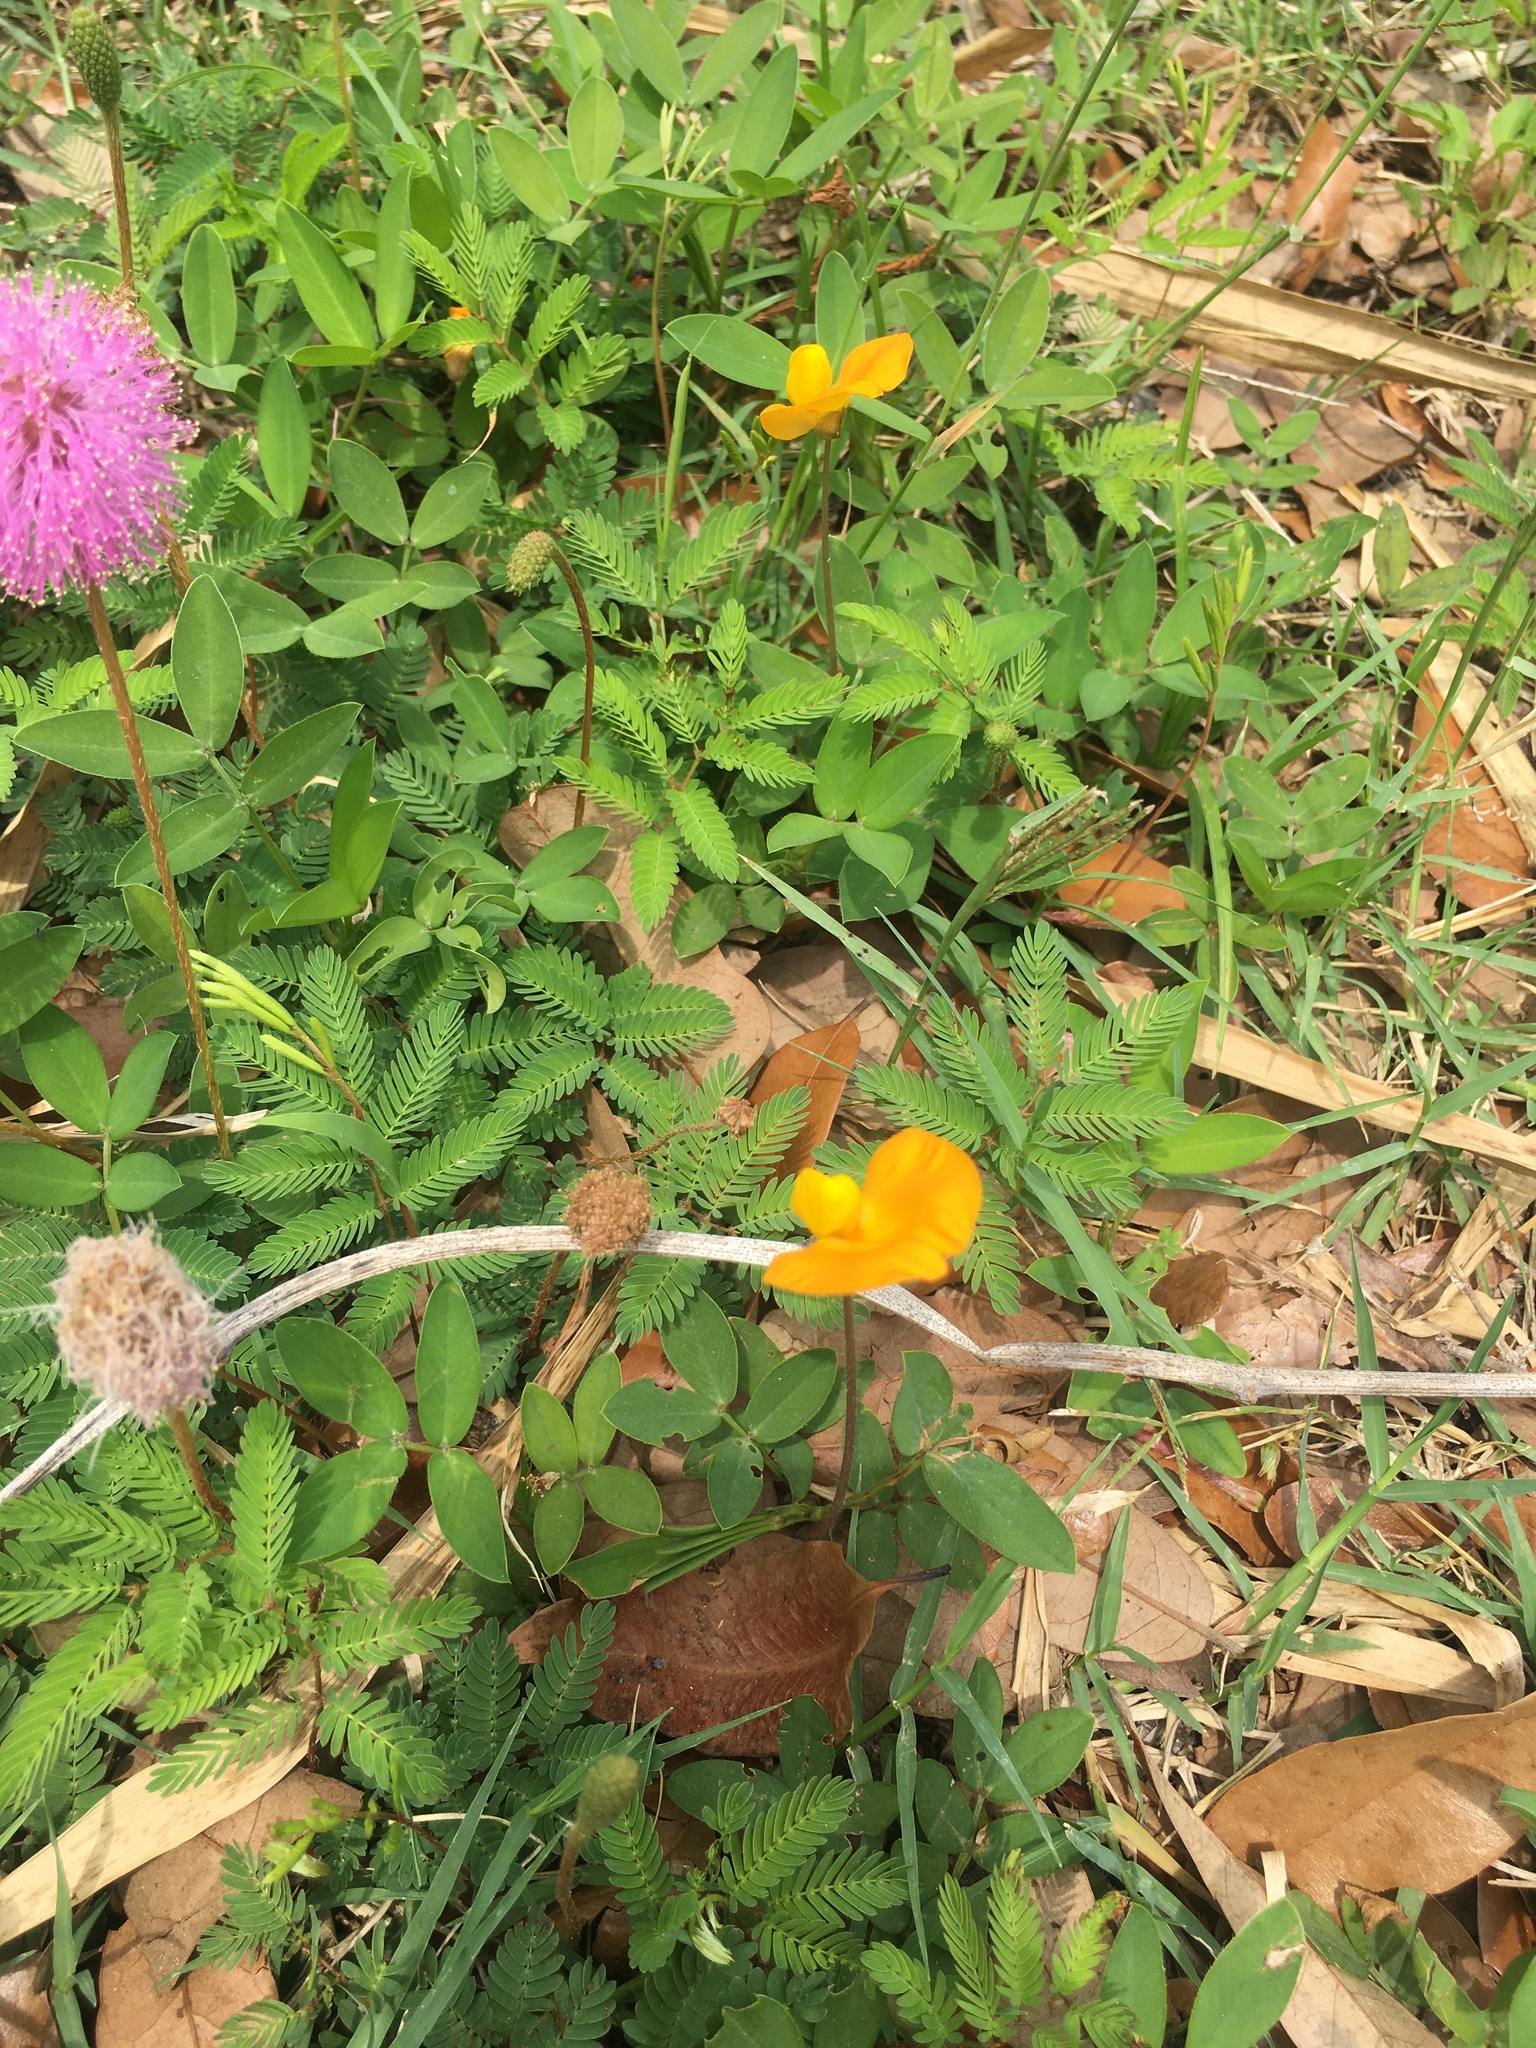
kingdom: Plantae
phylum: Tracheophyta
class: Magnoliopsida
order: Fabales
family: Fabaceae
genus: Mimosa
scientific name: Mimosa strigillosa
